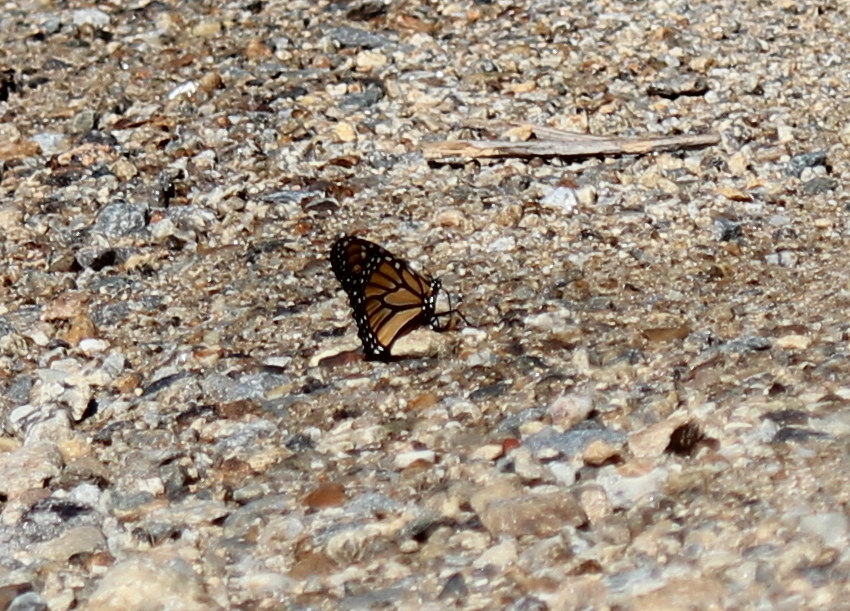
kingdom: Animalia
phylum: Arthropoda
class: Insecta
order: Lepidoptera
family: Nymphalidae
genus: Danaus
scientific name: Danaus plexippus
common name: Monarch
